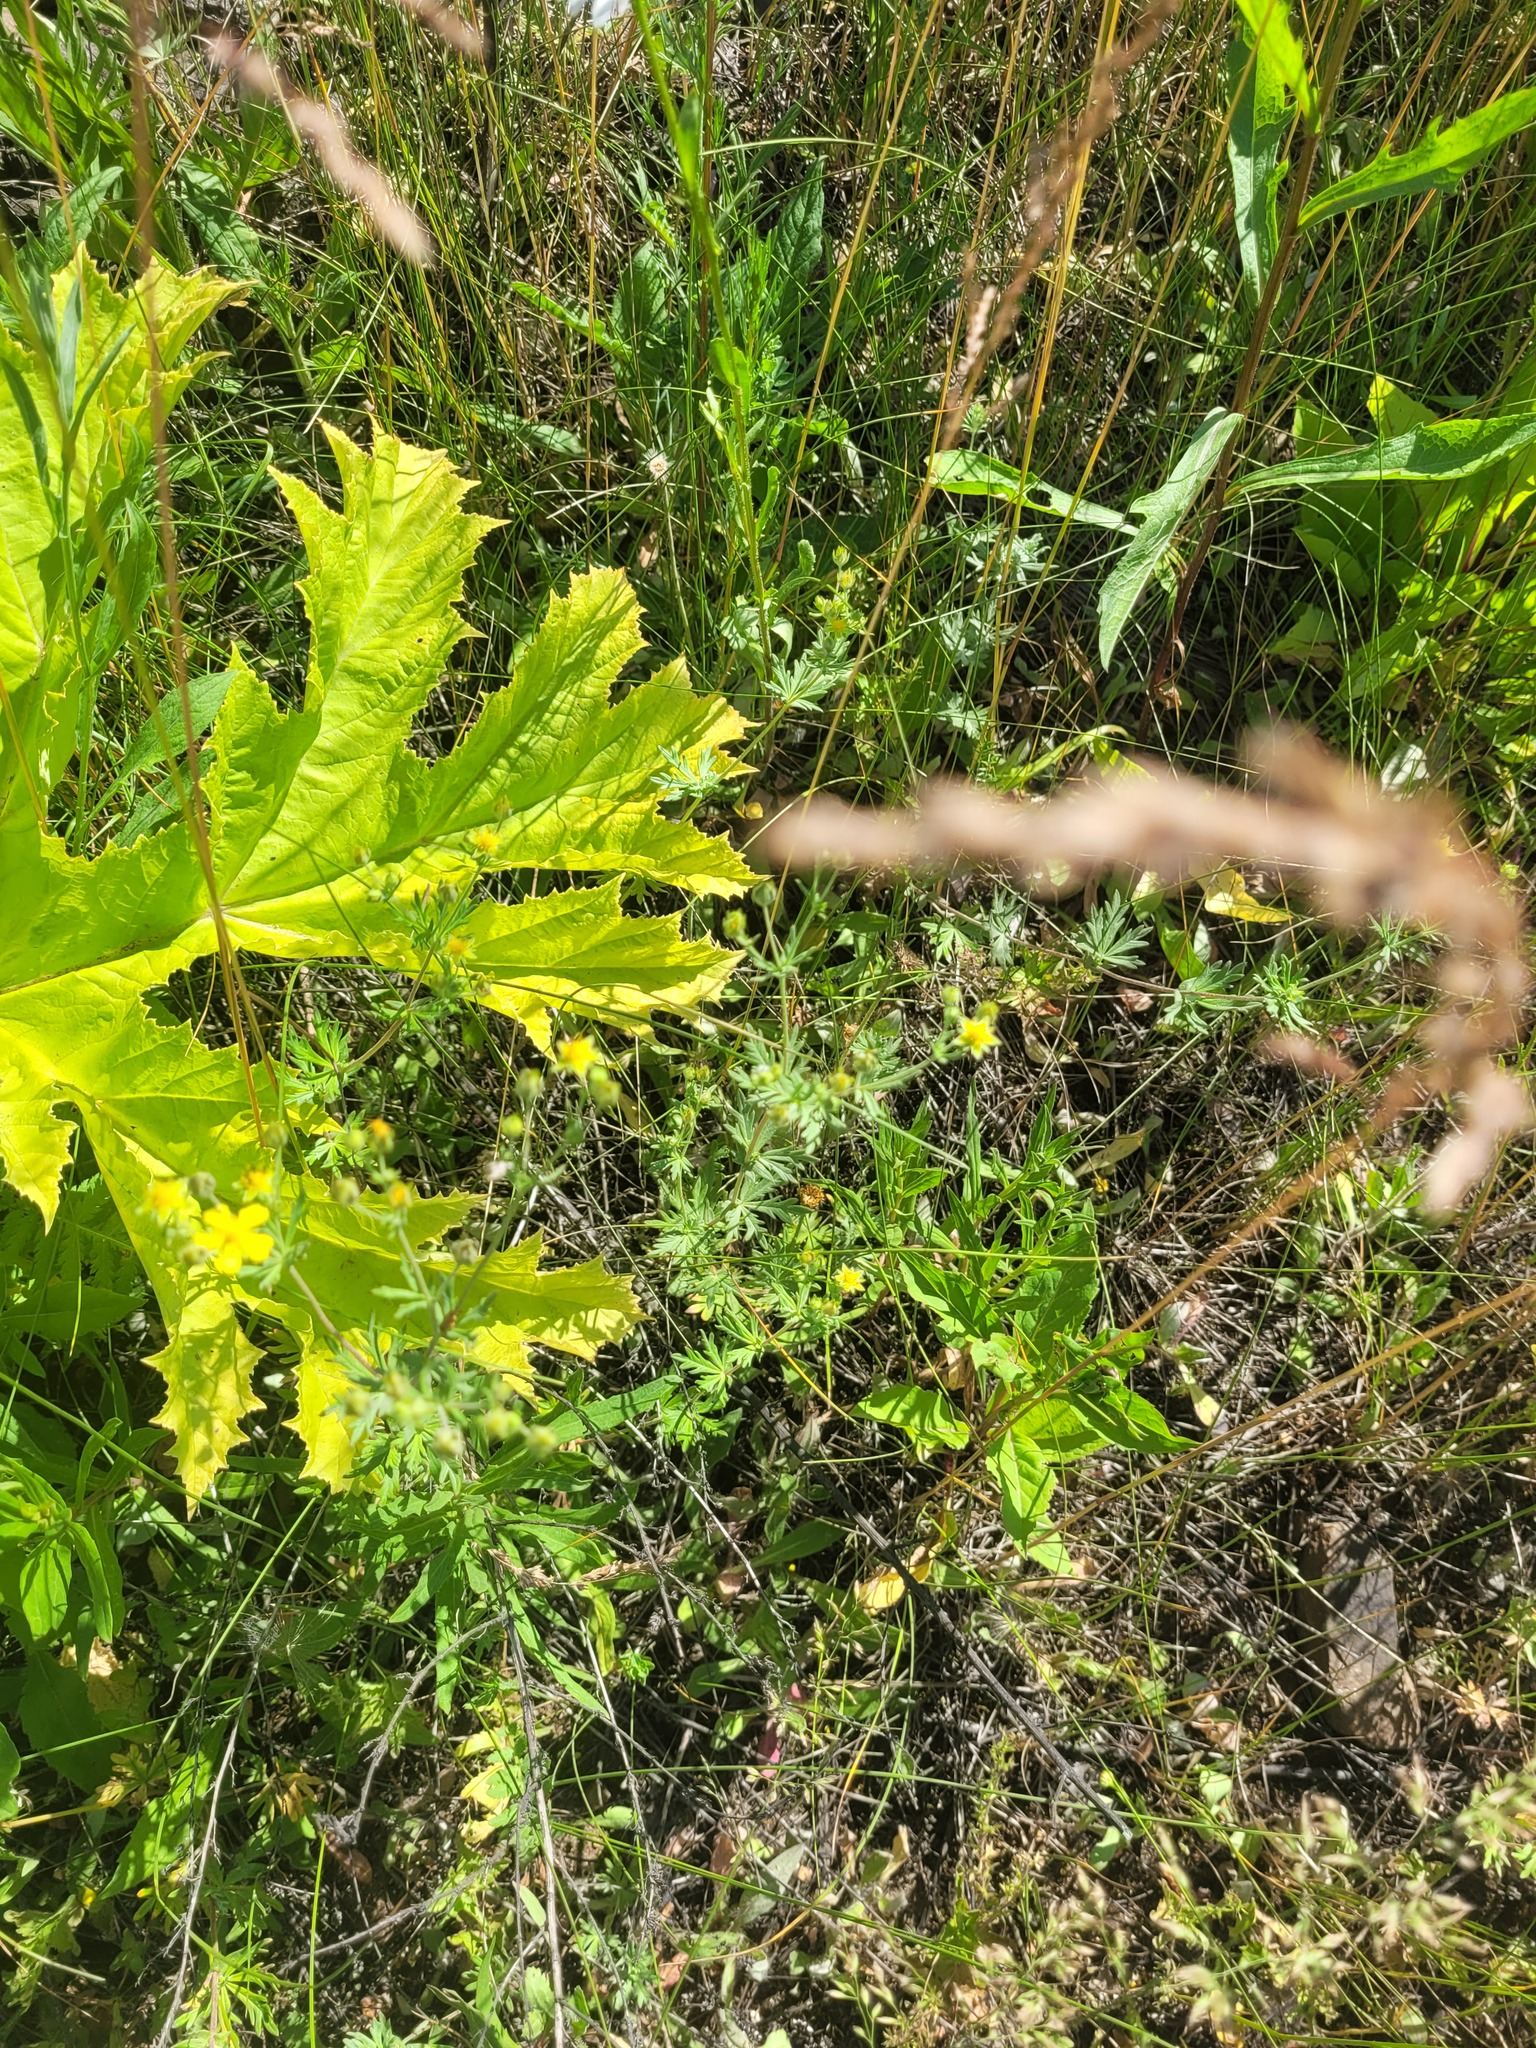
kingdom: Plantae
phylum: Tracheophyta
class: Magnoliopsida
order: Rosales
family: Rosaceae
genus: Potentilla
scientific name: Potentilla argentea
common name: Hoary cinquefoil
